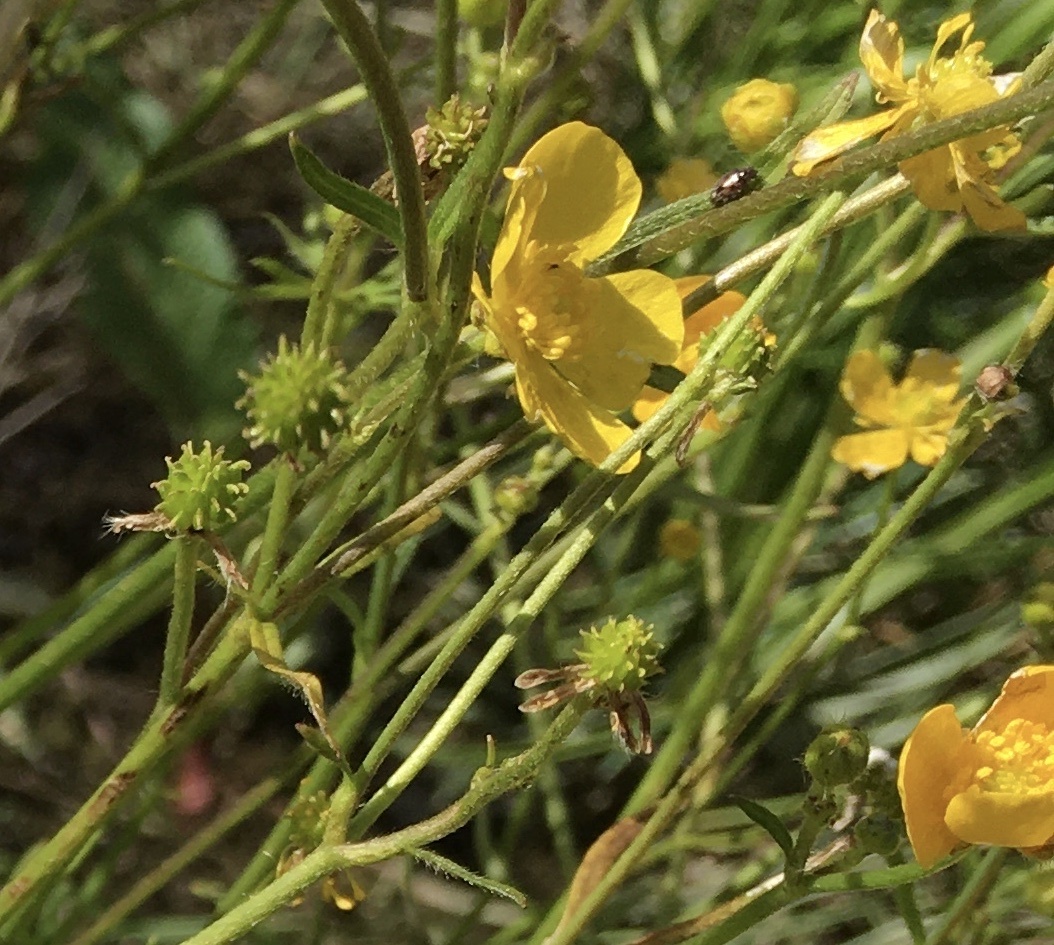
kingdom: Plantae
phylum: Tracheophyta
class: Magnoliopsida
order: Ranunculales
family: Ranunculaceae
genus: Ranunculus
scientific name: Ranunculus acris
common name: Meadow buttercup
